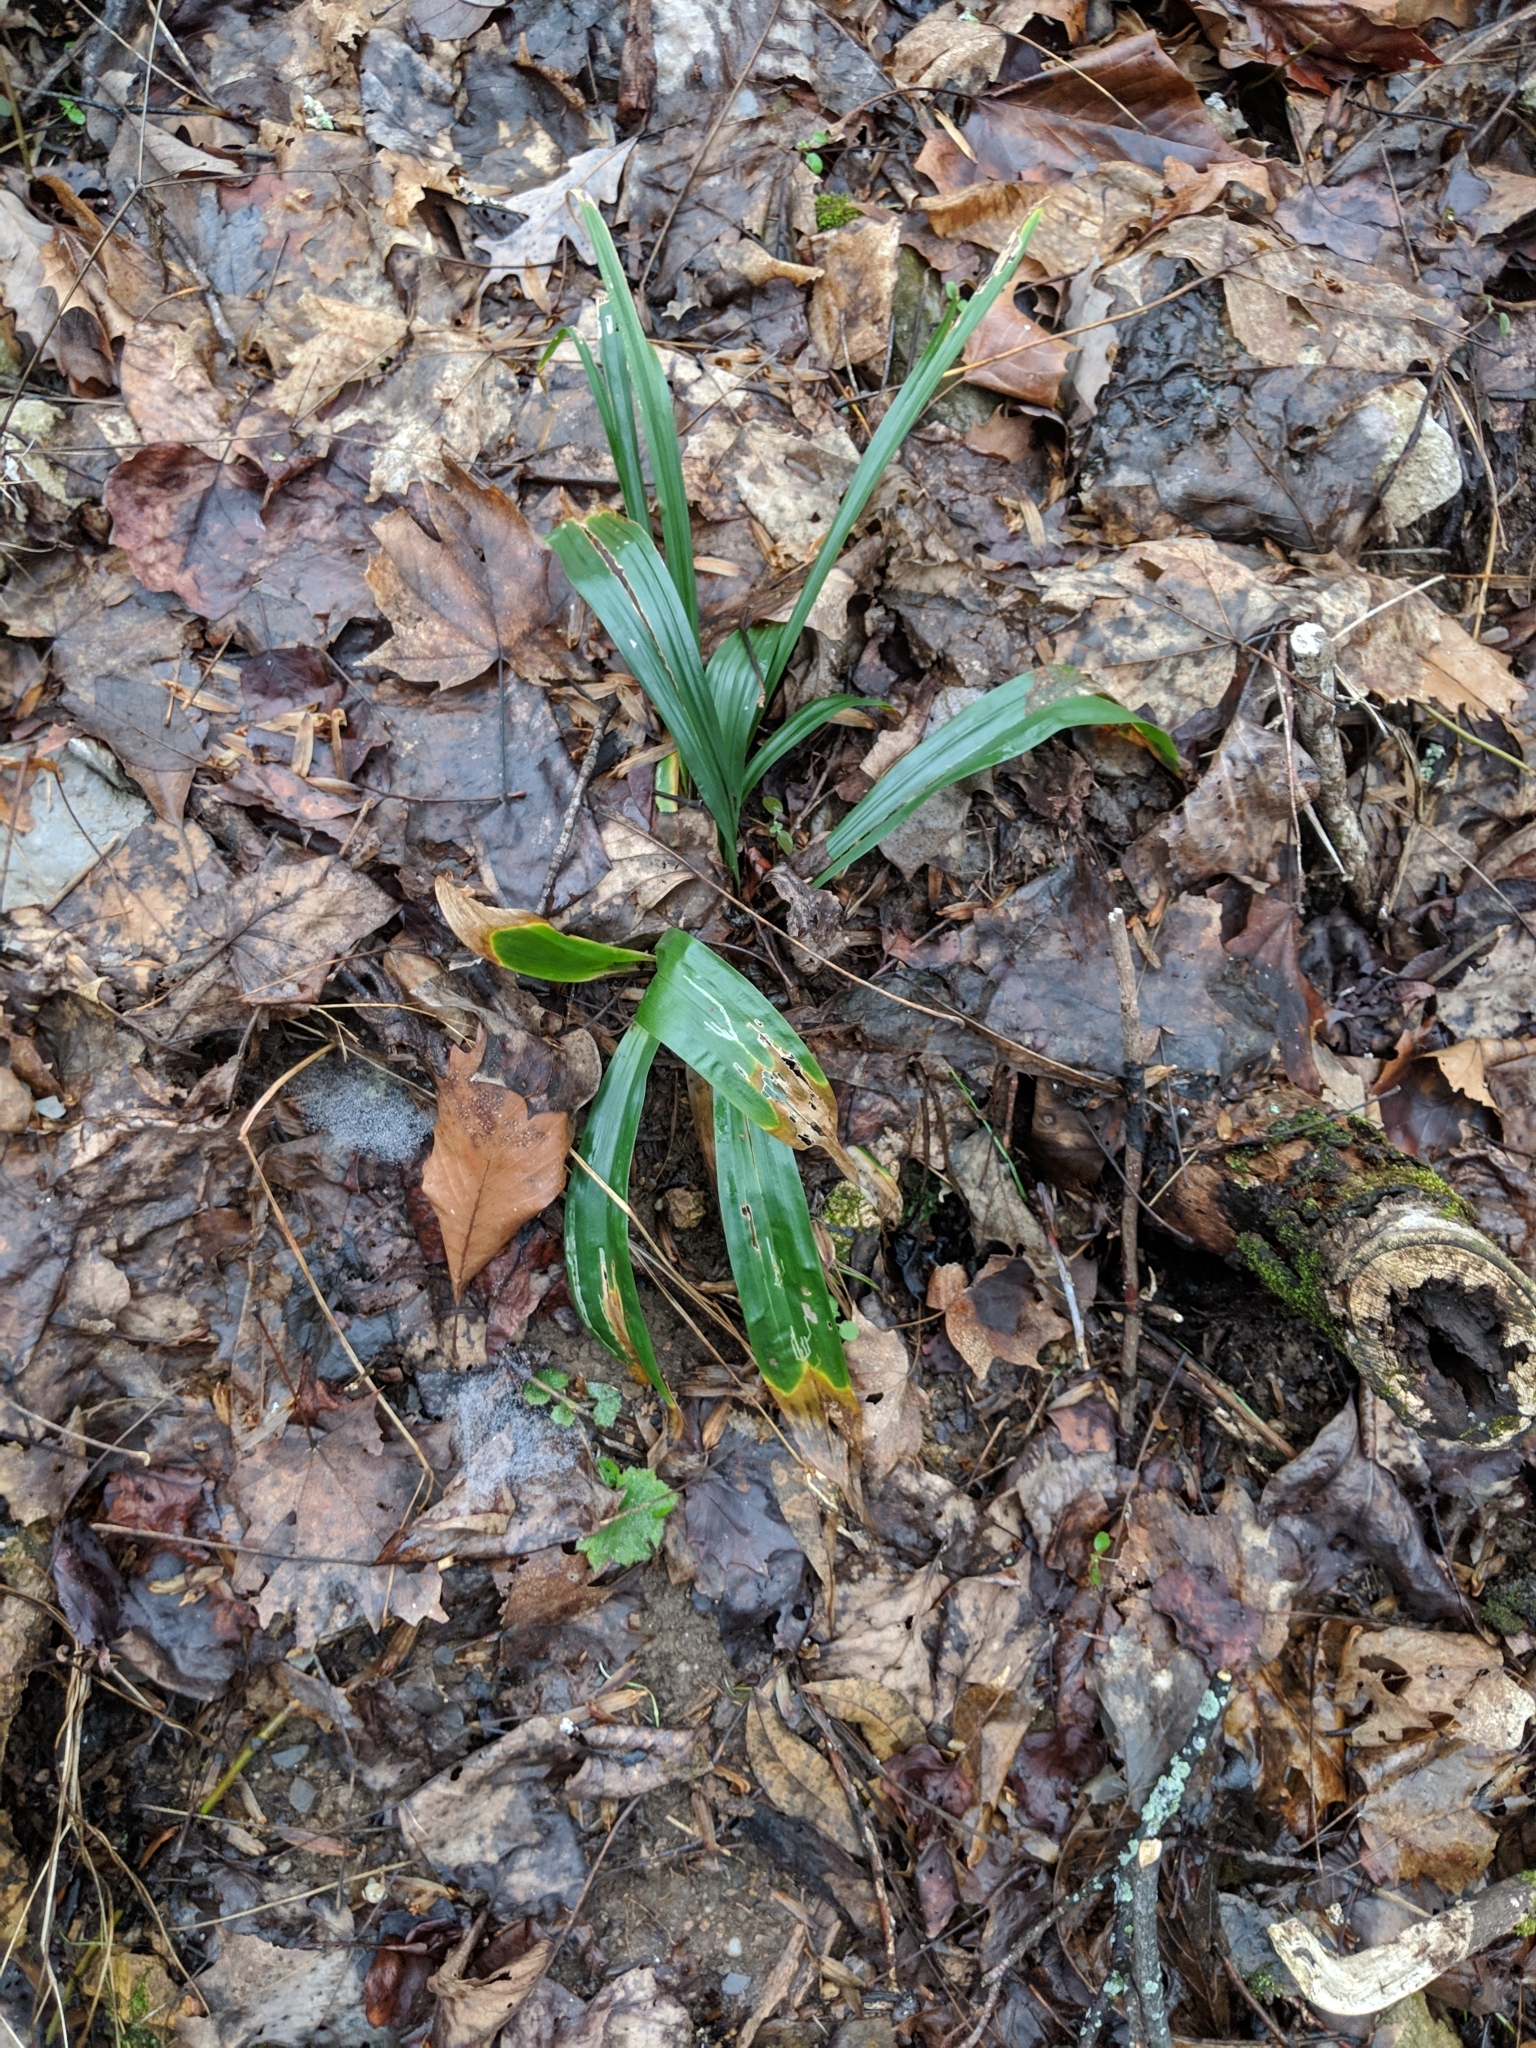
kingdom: Plantae
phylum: Tracheophyta
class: Liliopsida
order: Poales
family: Cyperaceae
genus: Carex
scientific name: Carex albursina
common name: Blunt-scale wood sedge
